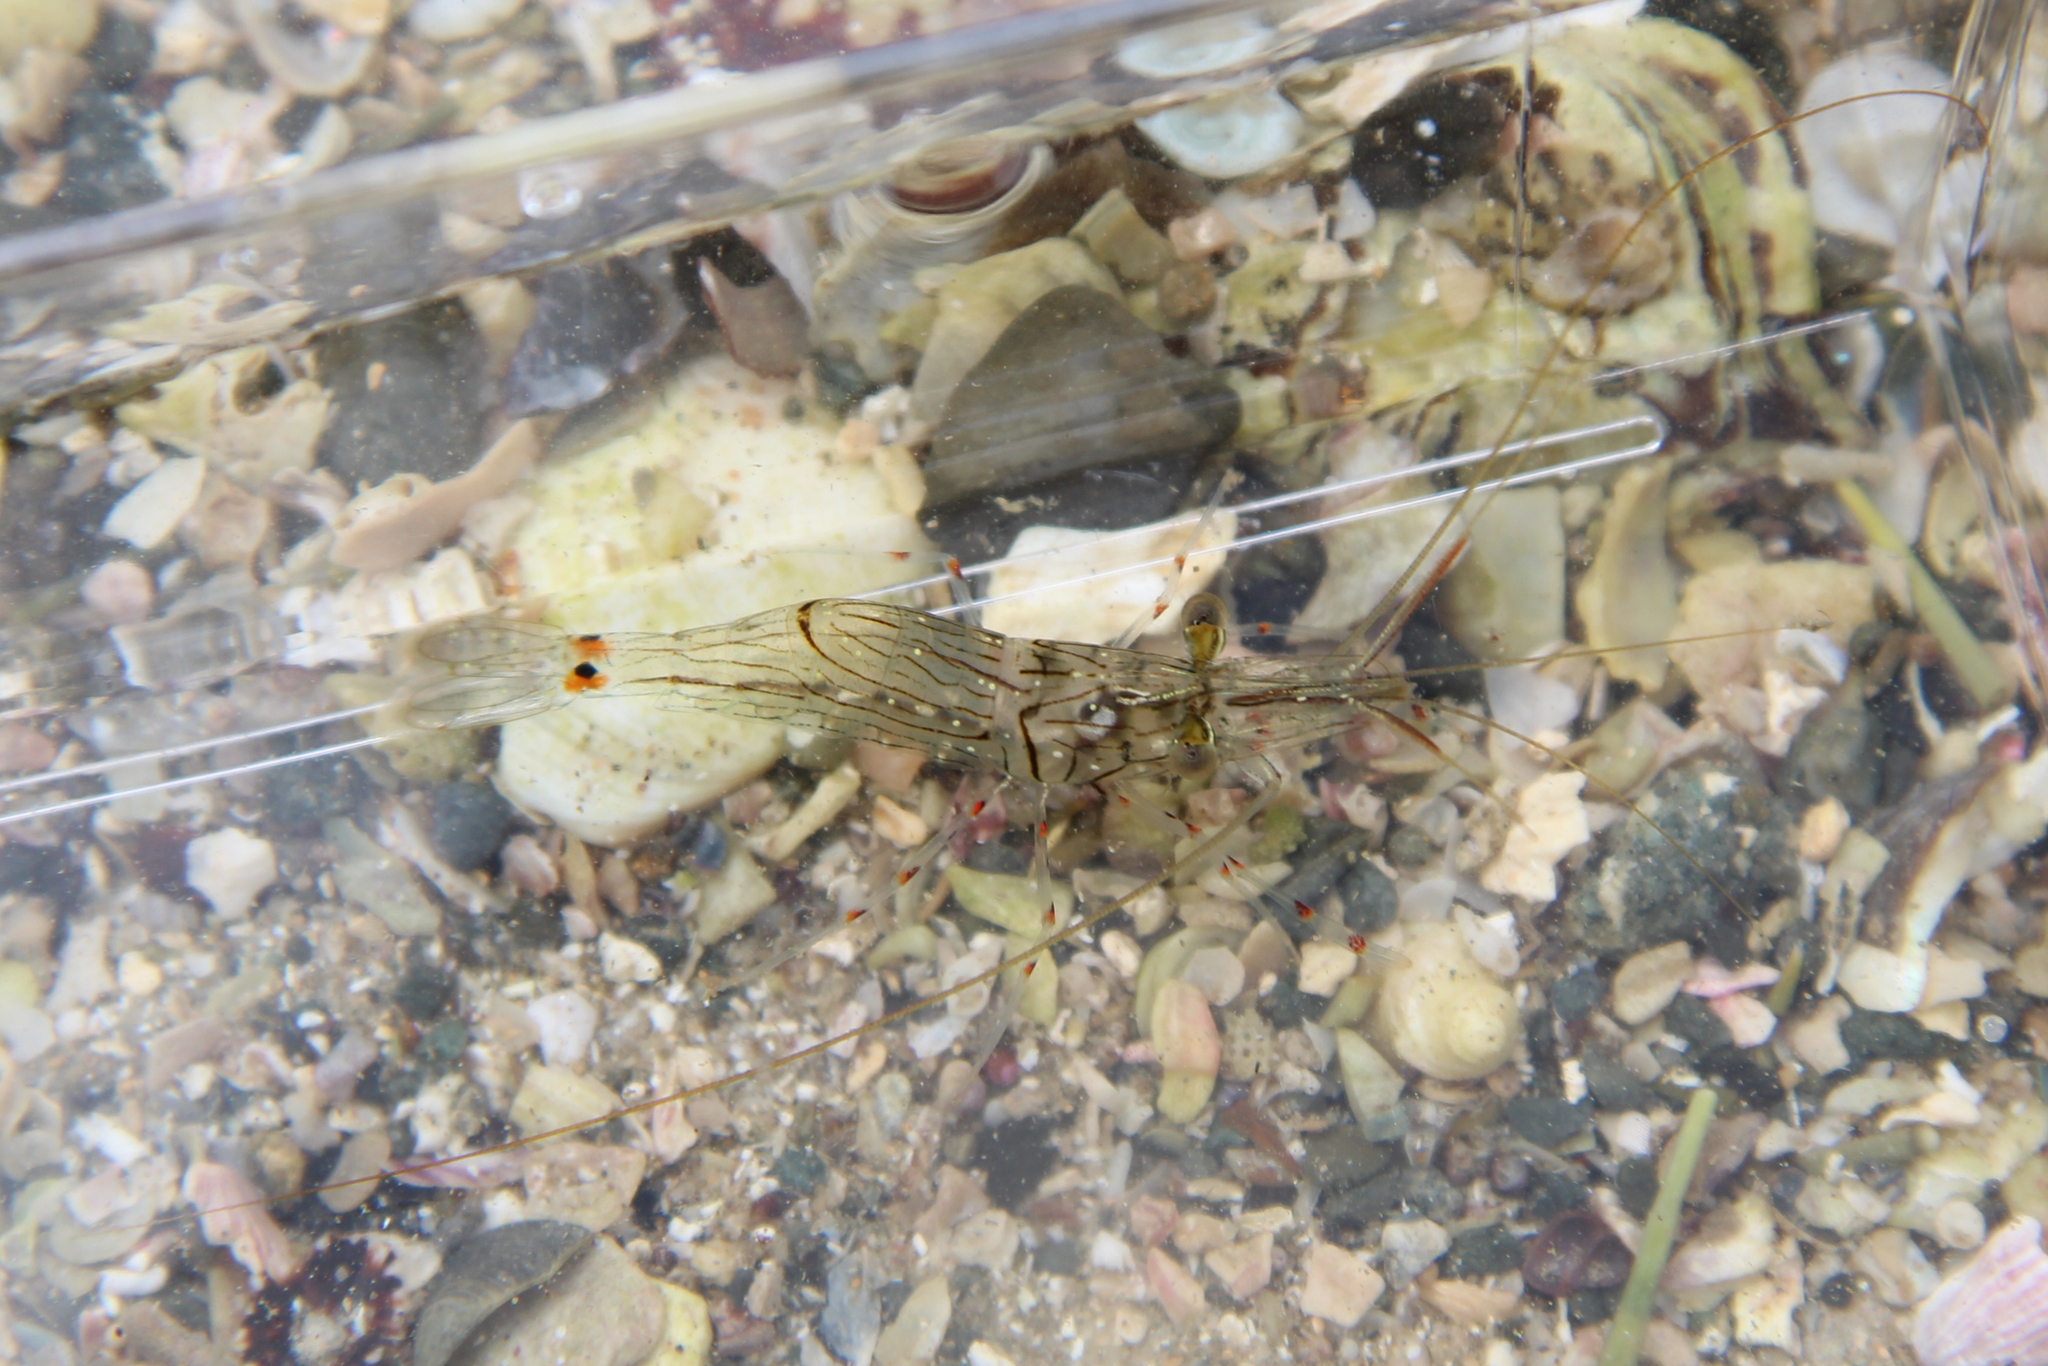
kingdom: Animalia
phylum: Arthropoda
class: Malacostraca
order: Decapoda
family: Palaemonidae
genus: Palaemon
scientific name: Palaemon affinis
